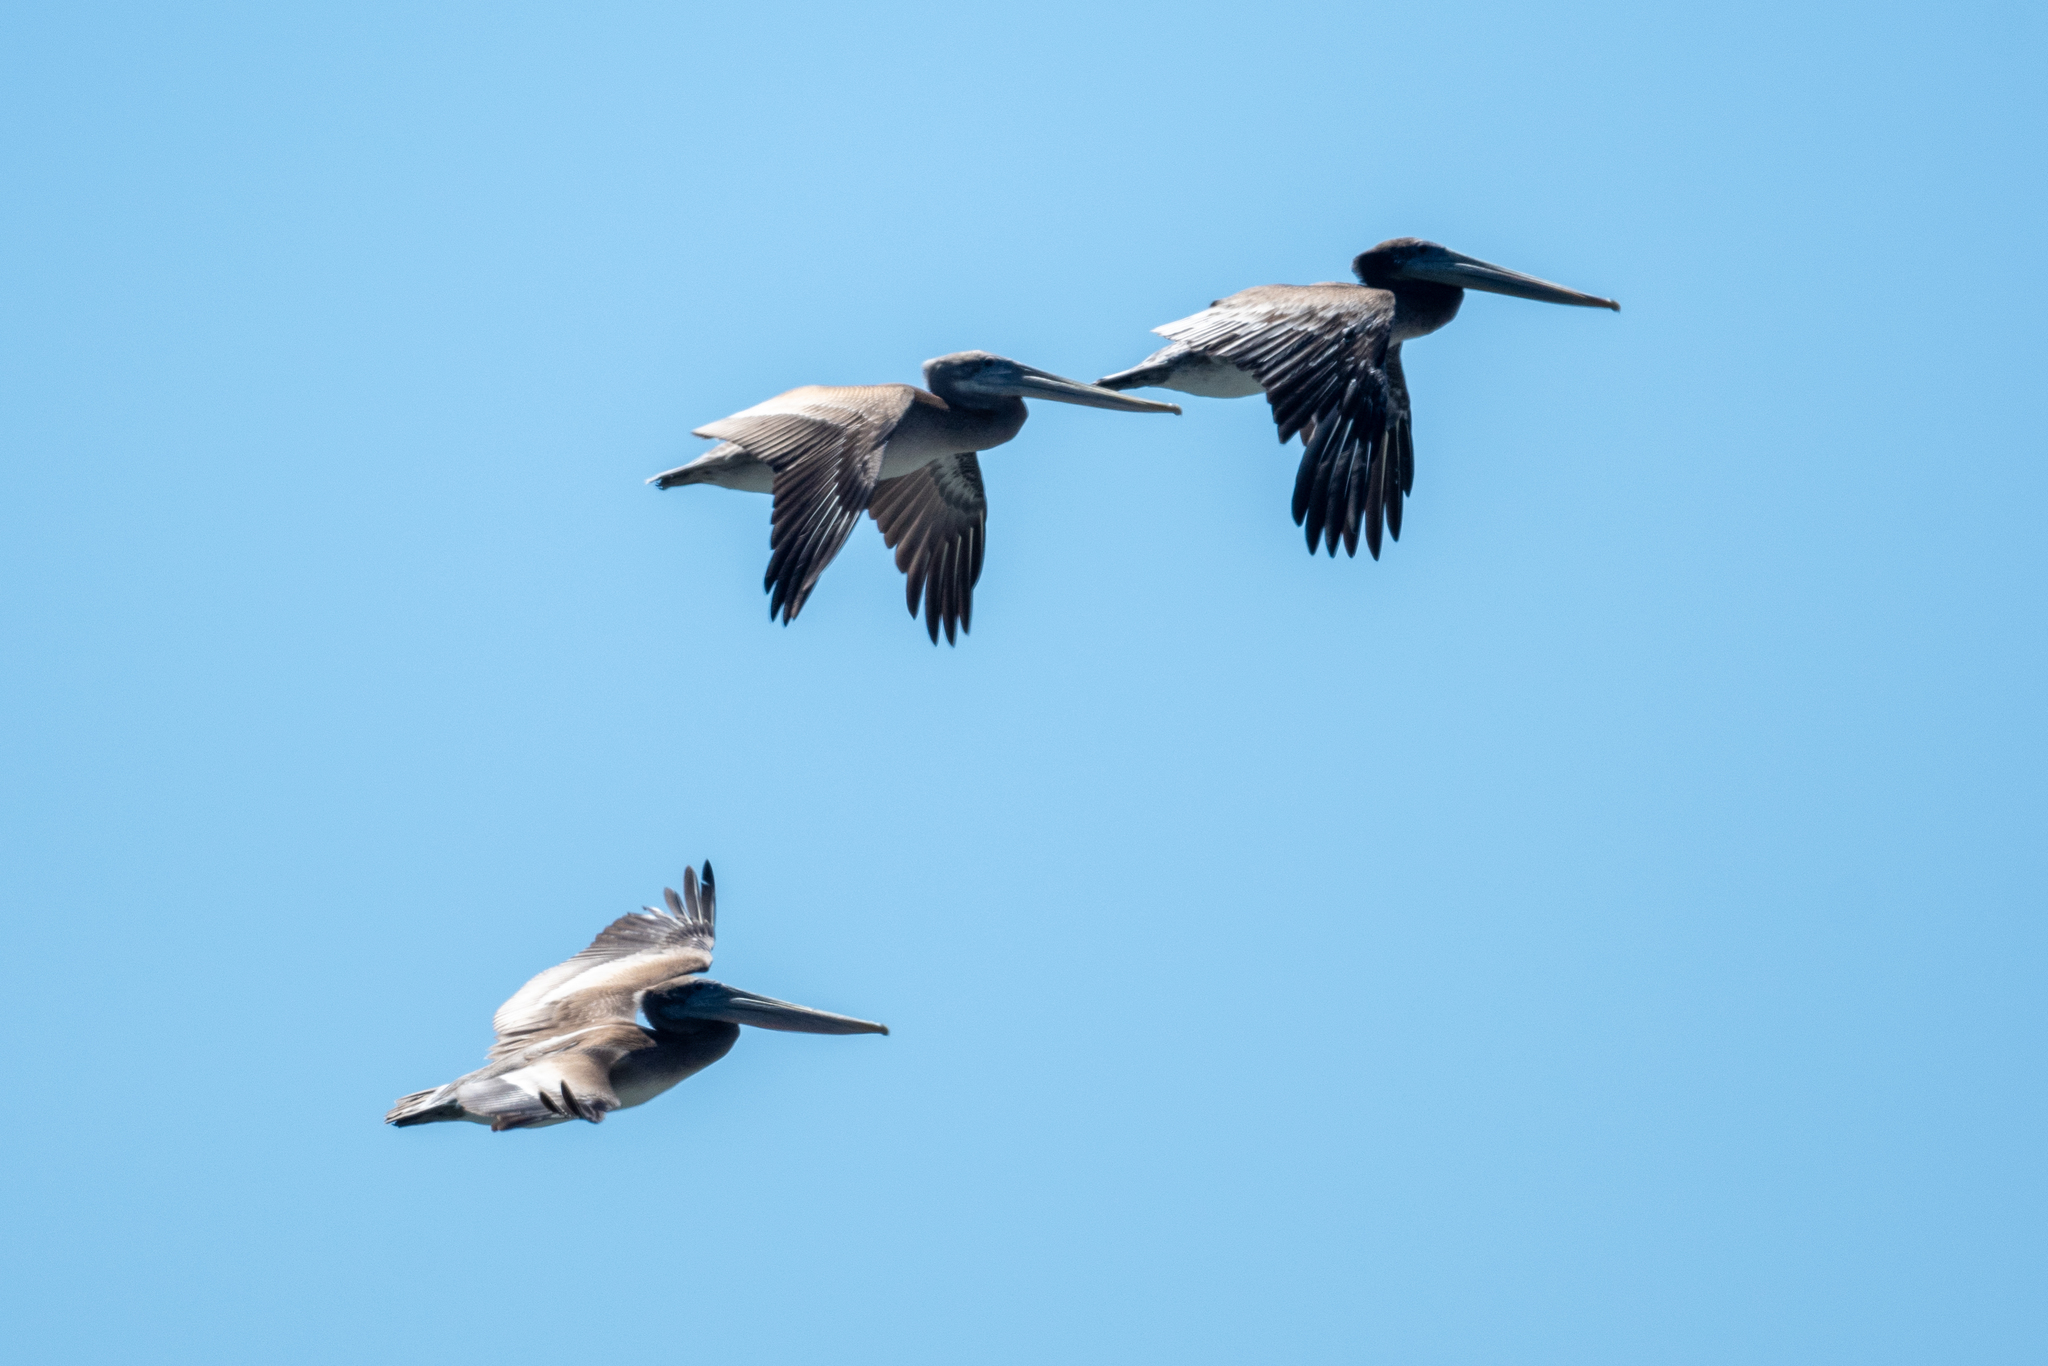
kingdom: Animalia
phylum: Chordata
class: Aves
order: Pelecaniformes
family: Pelecanidae
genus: Pelecanus
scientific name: Pelecanus occidentalis
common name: Brown pelican
